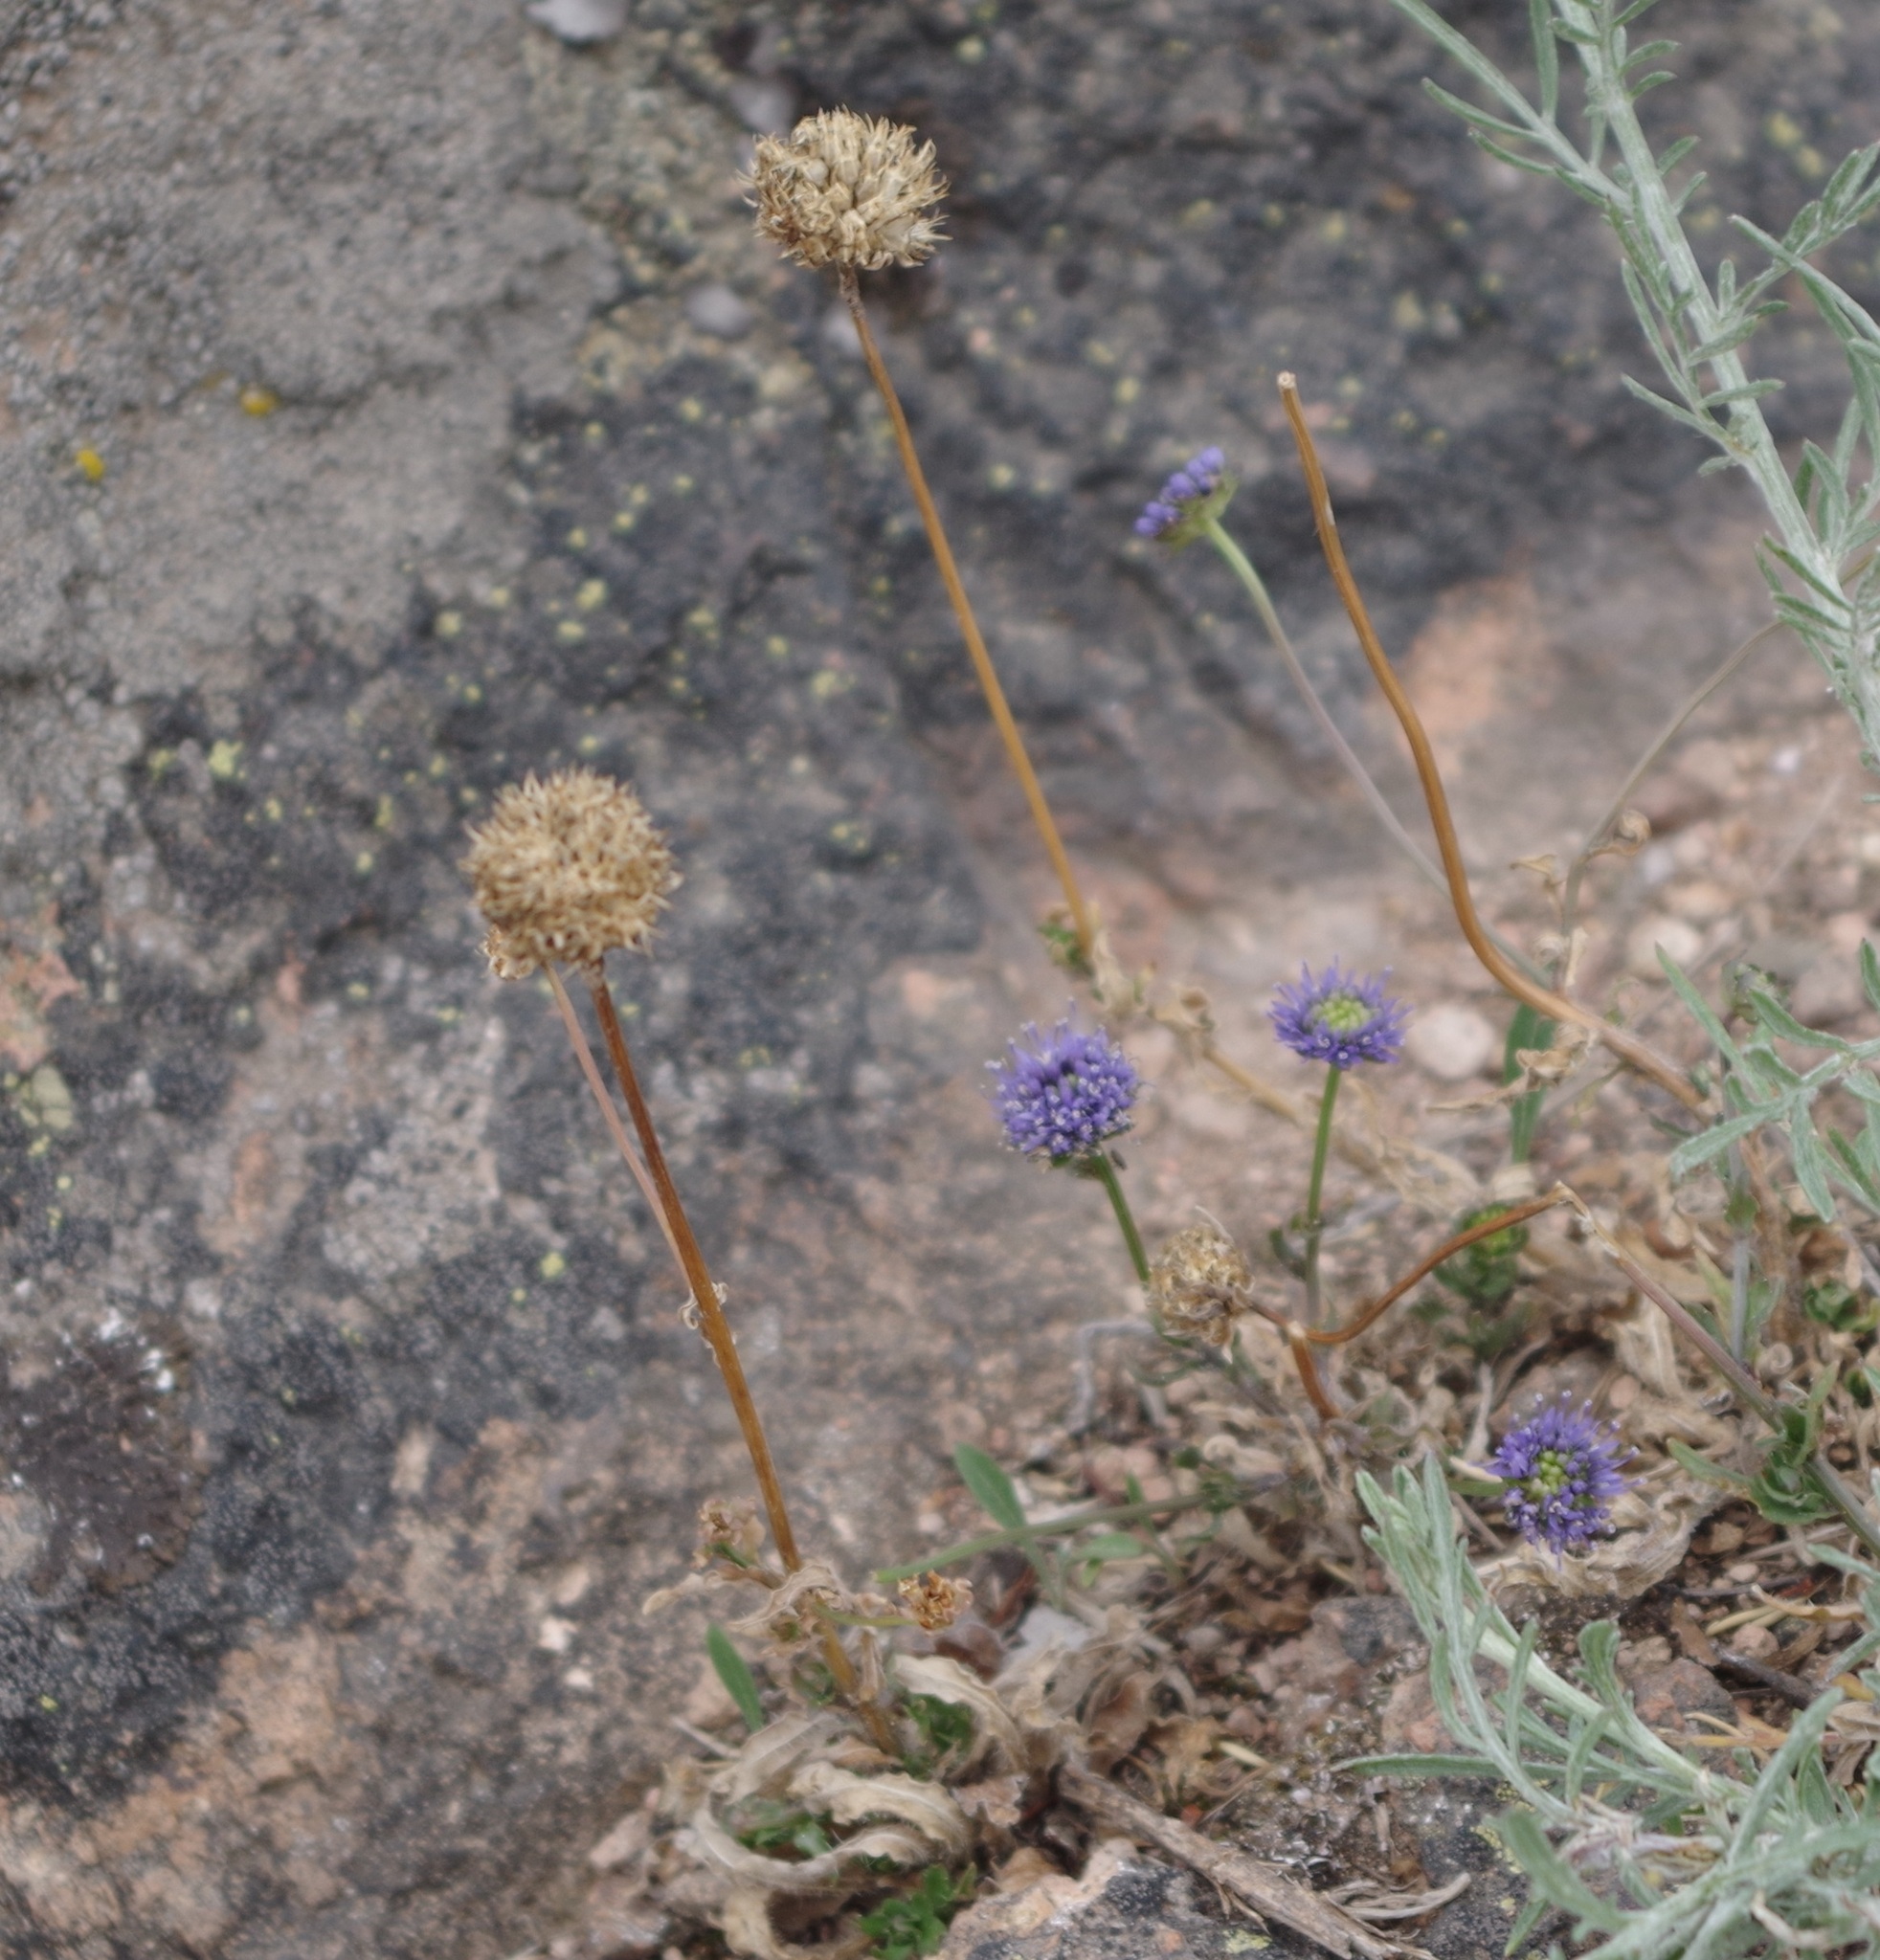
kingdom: Plantae
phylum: Tracheophyta
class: Magnoliopsida
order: Asterales
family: Campanulaceae
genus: Jasione
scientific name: Jasione montana
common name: Sheep's-bit
